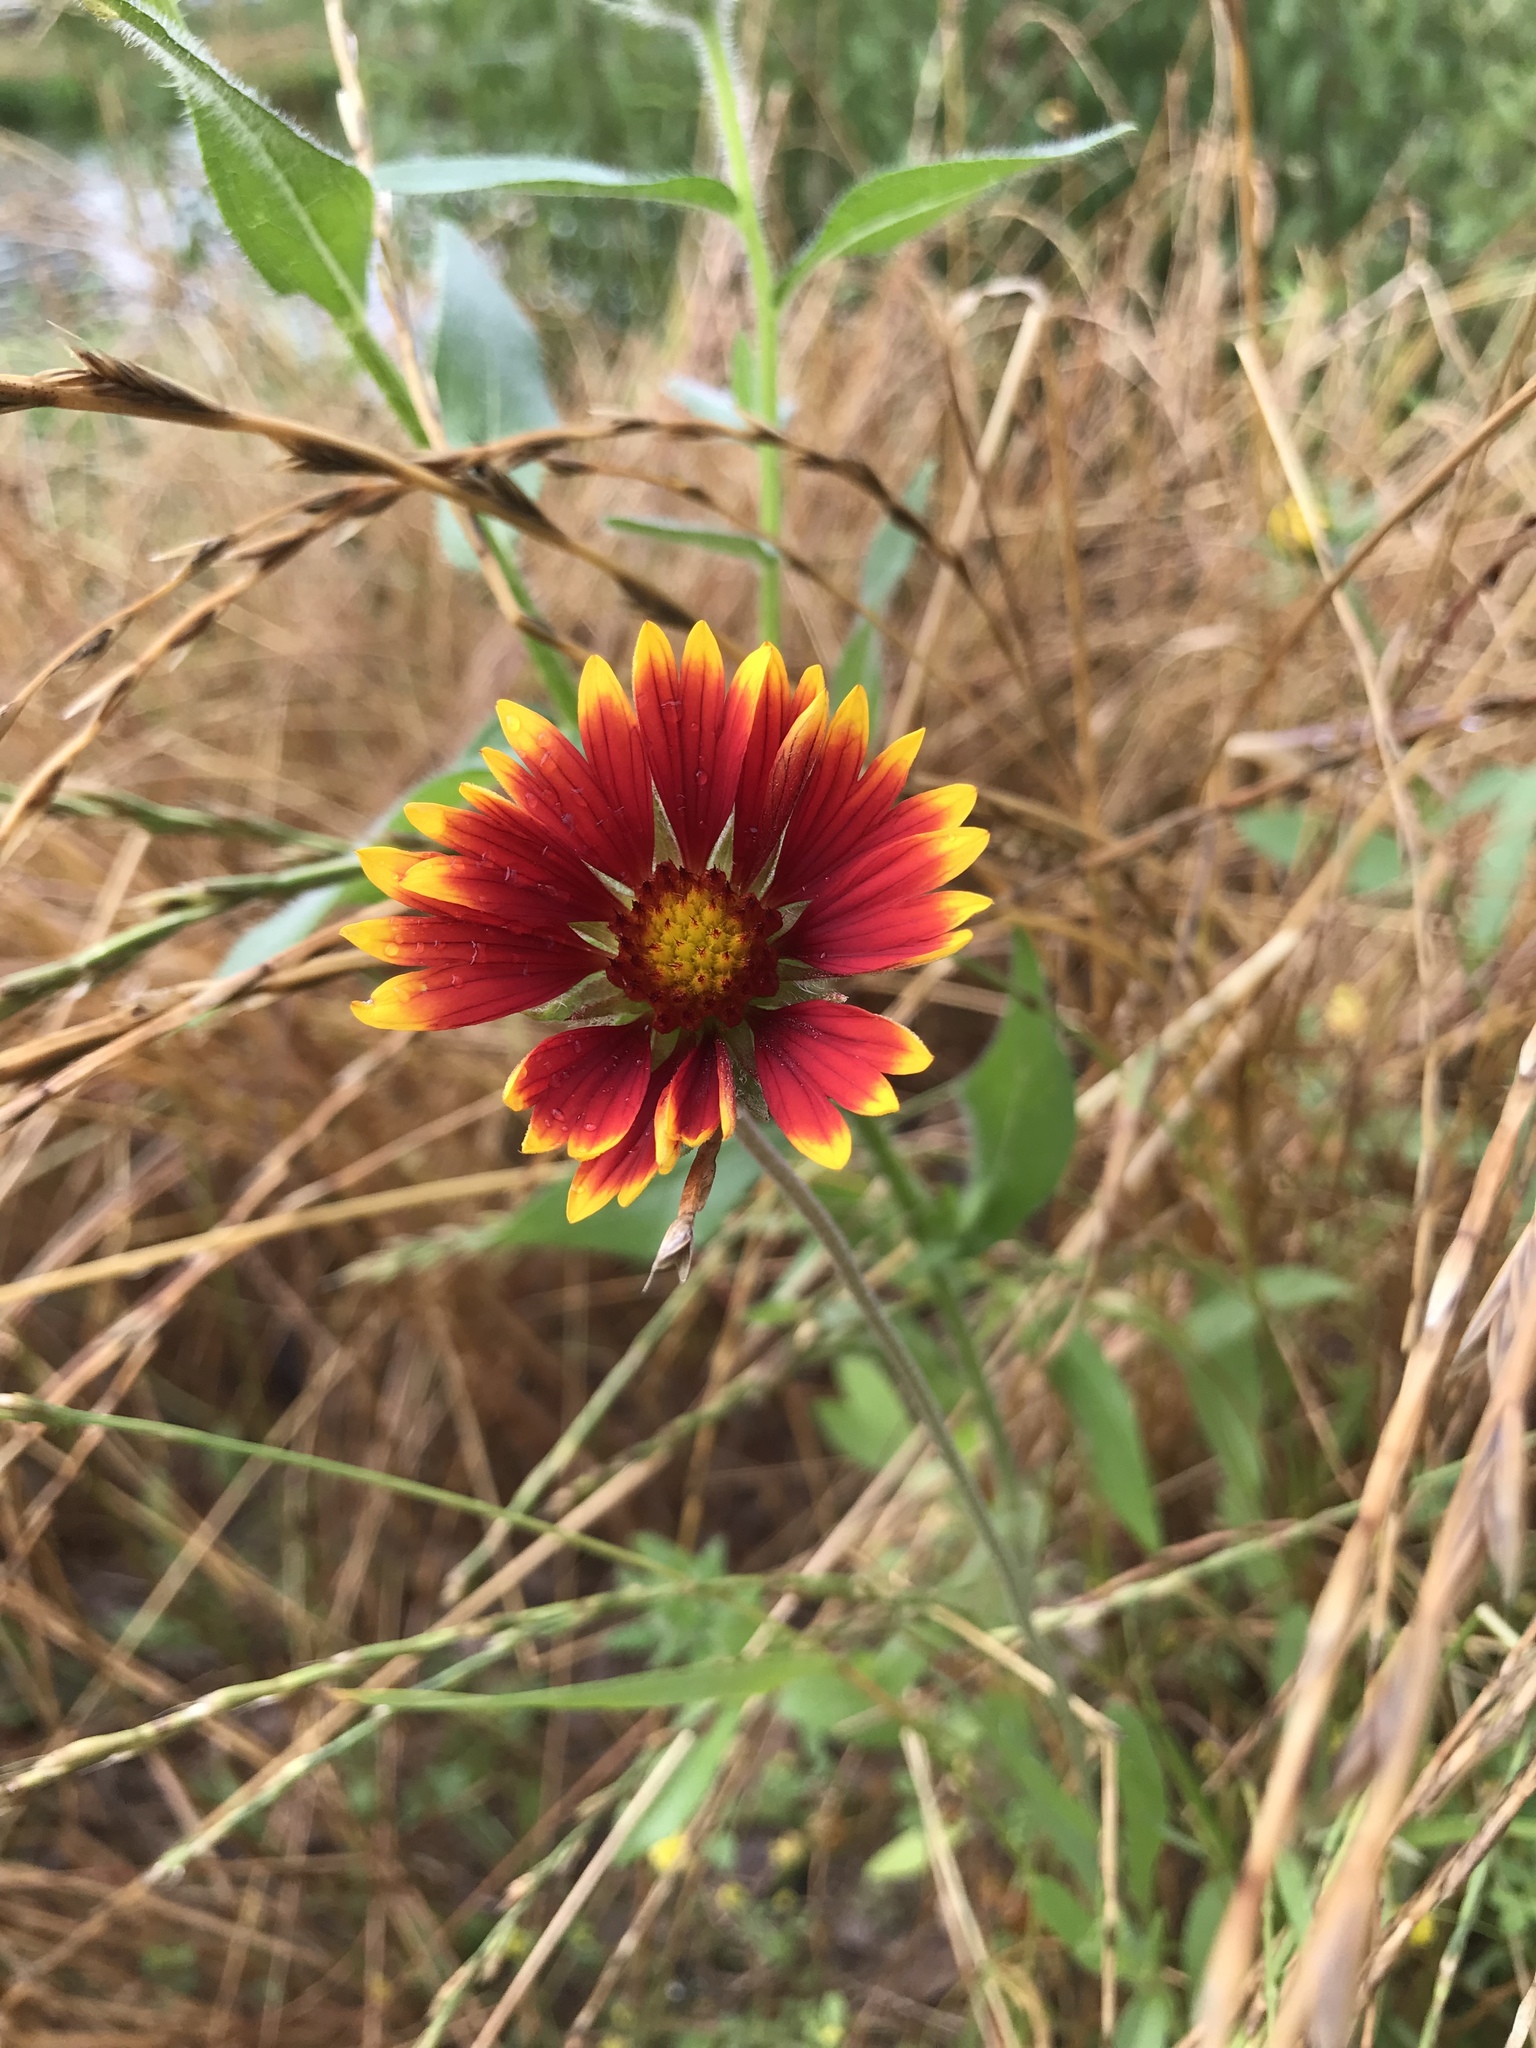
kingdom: Plantae
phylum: Tracheophyta
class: Magnoliopsida
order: Asterales
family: Asteraceae
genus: Gaillardia
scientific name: Gaillardia pulchella
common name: Firewheel
